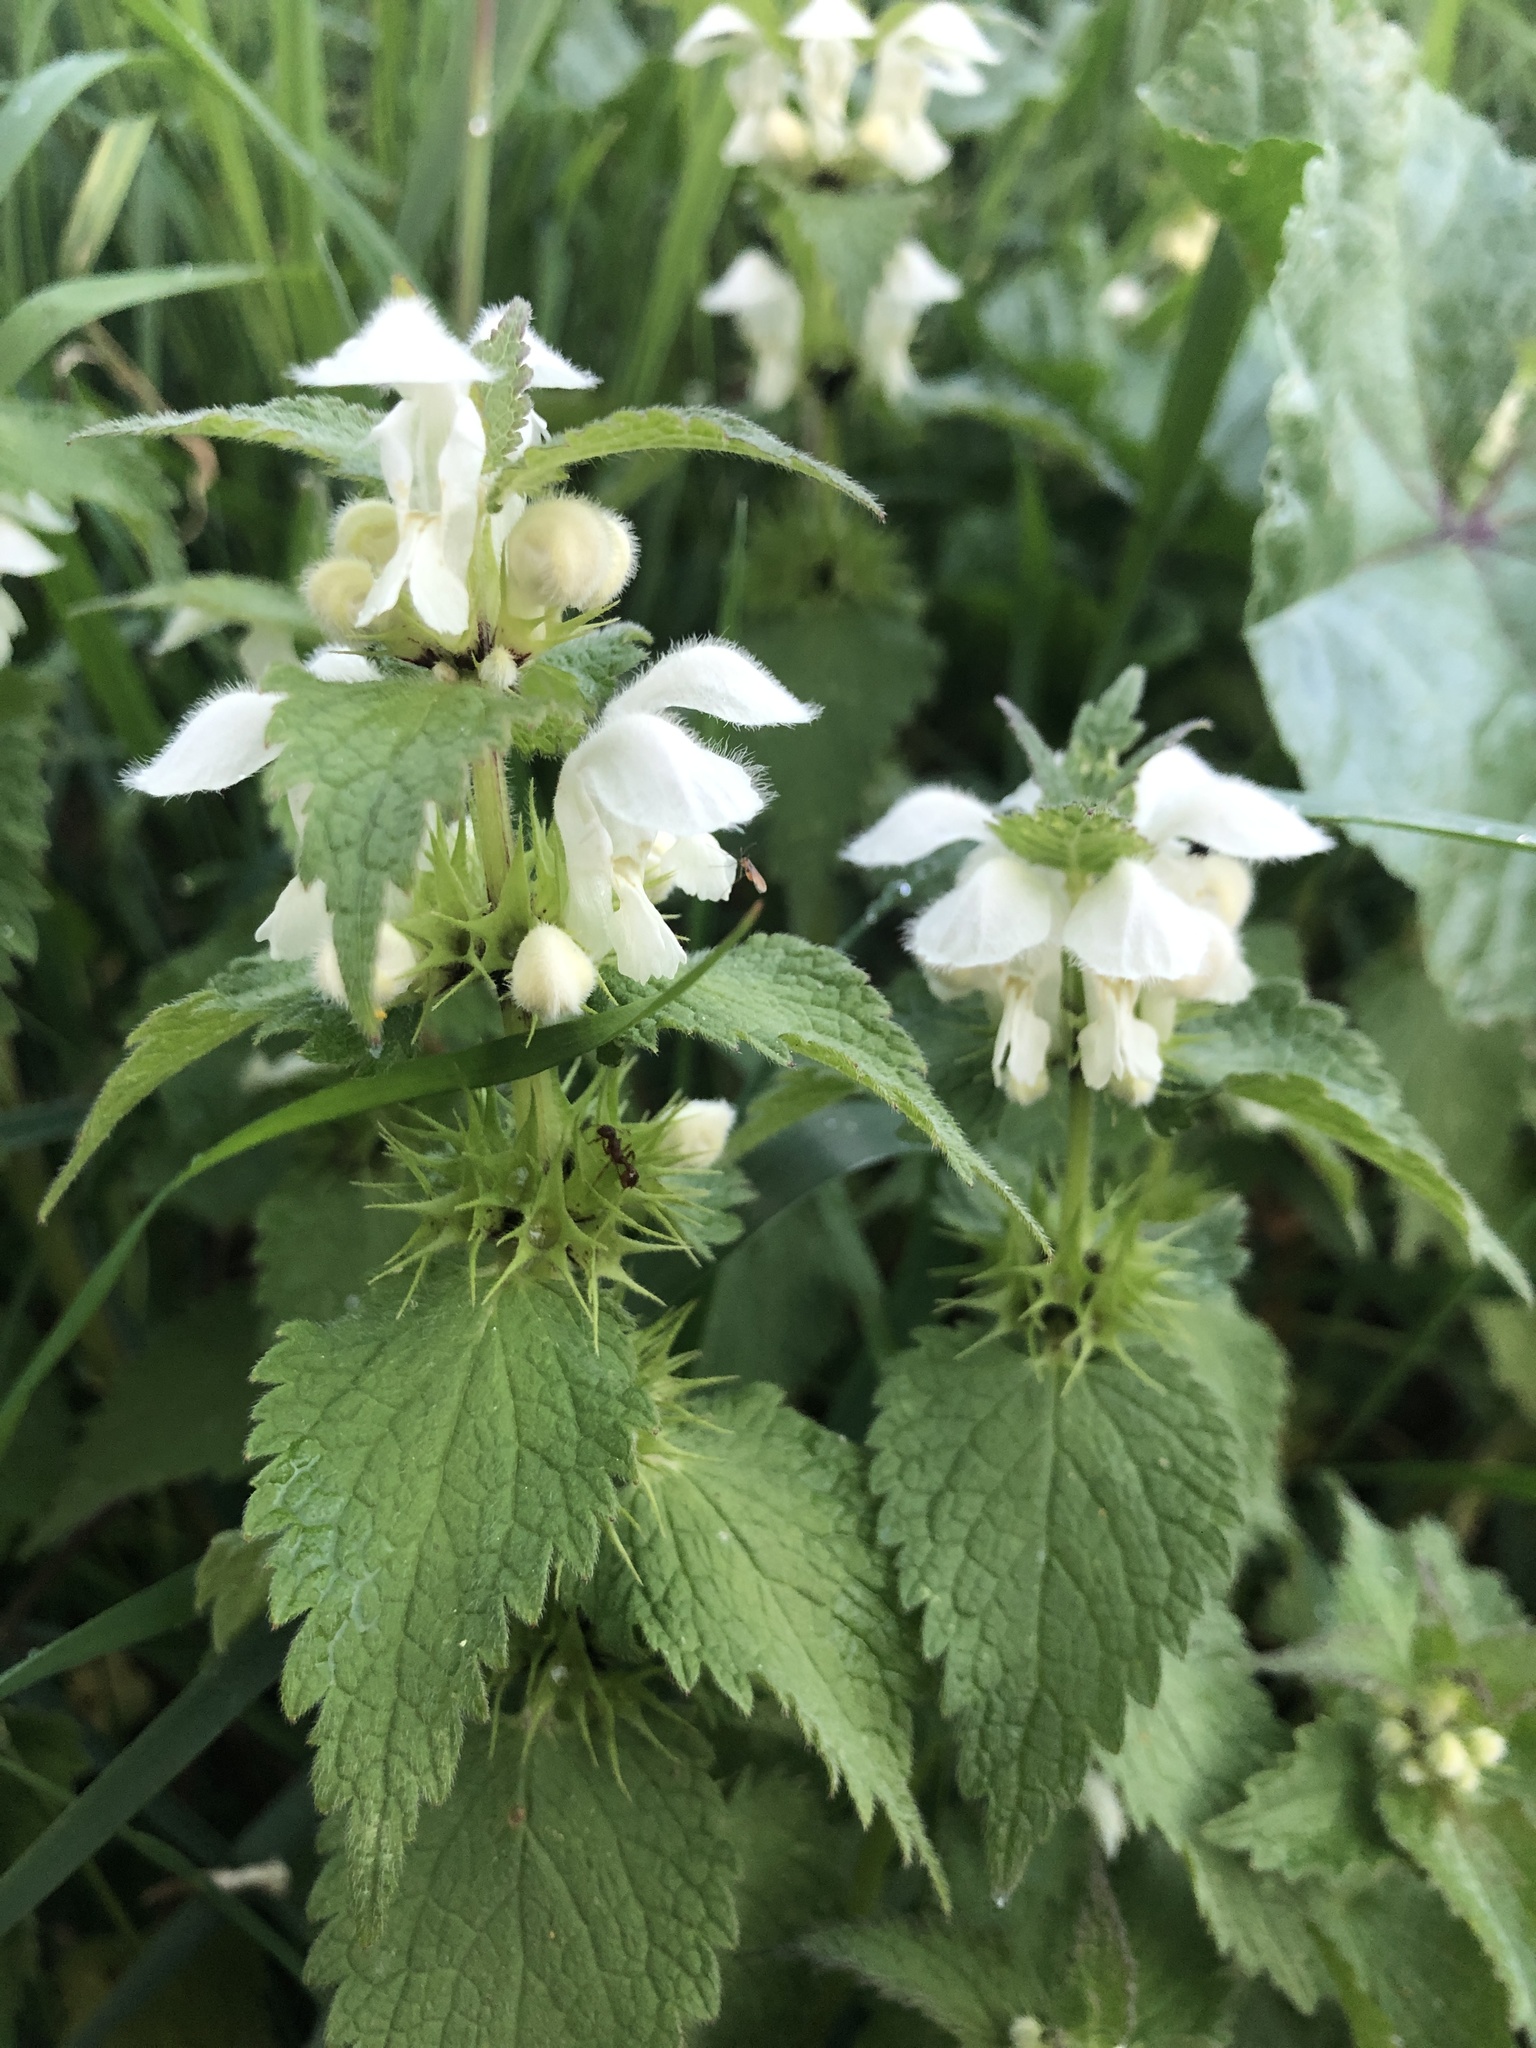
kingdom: Plantae
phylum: Tracheophyta
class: Magnoliopsida
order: Lamiales
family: Lamiaceae
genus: Lamium
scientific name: Lamium album
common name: White dead-nettle
